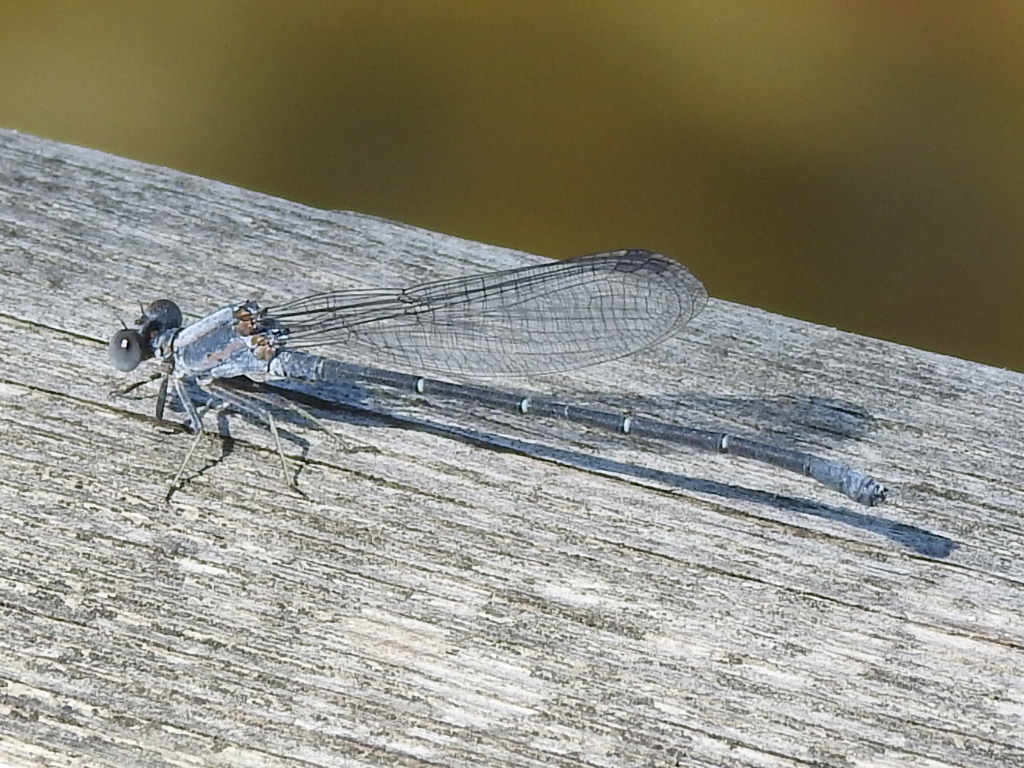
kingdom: Animalia
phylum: Arthropoda
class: Insecta
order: Odonata
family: Coenagrionidae
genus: Argia
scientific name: Argia moesta
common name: Powdered dancer
